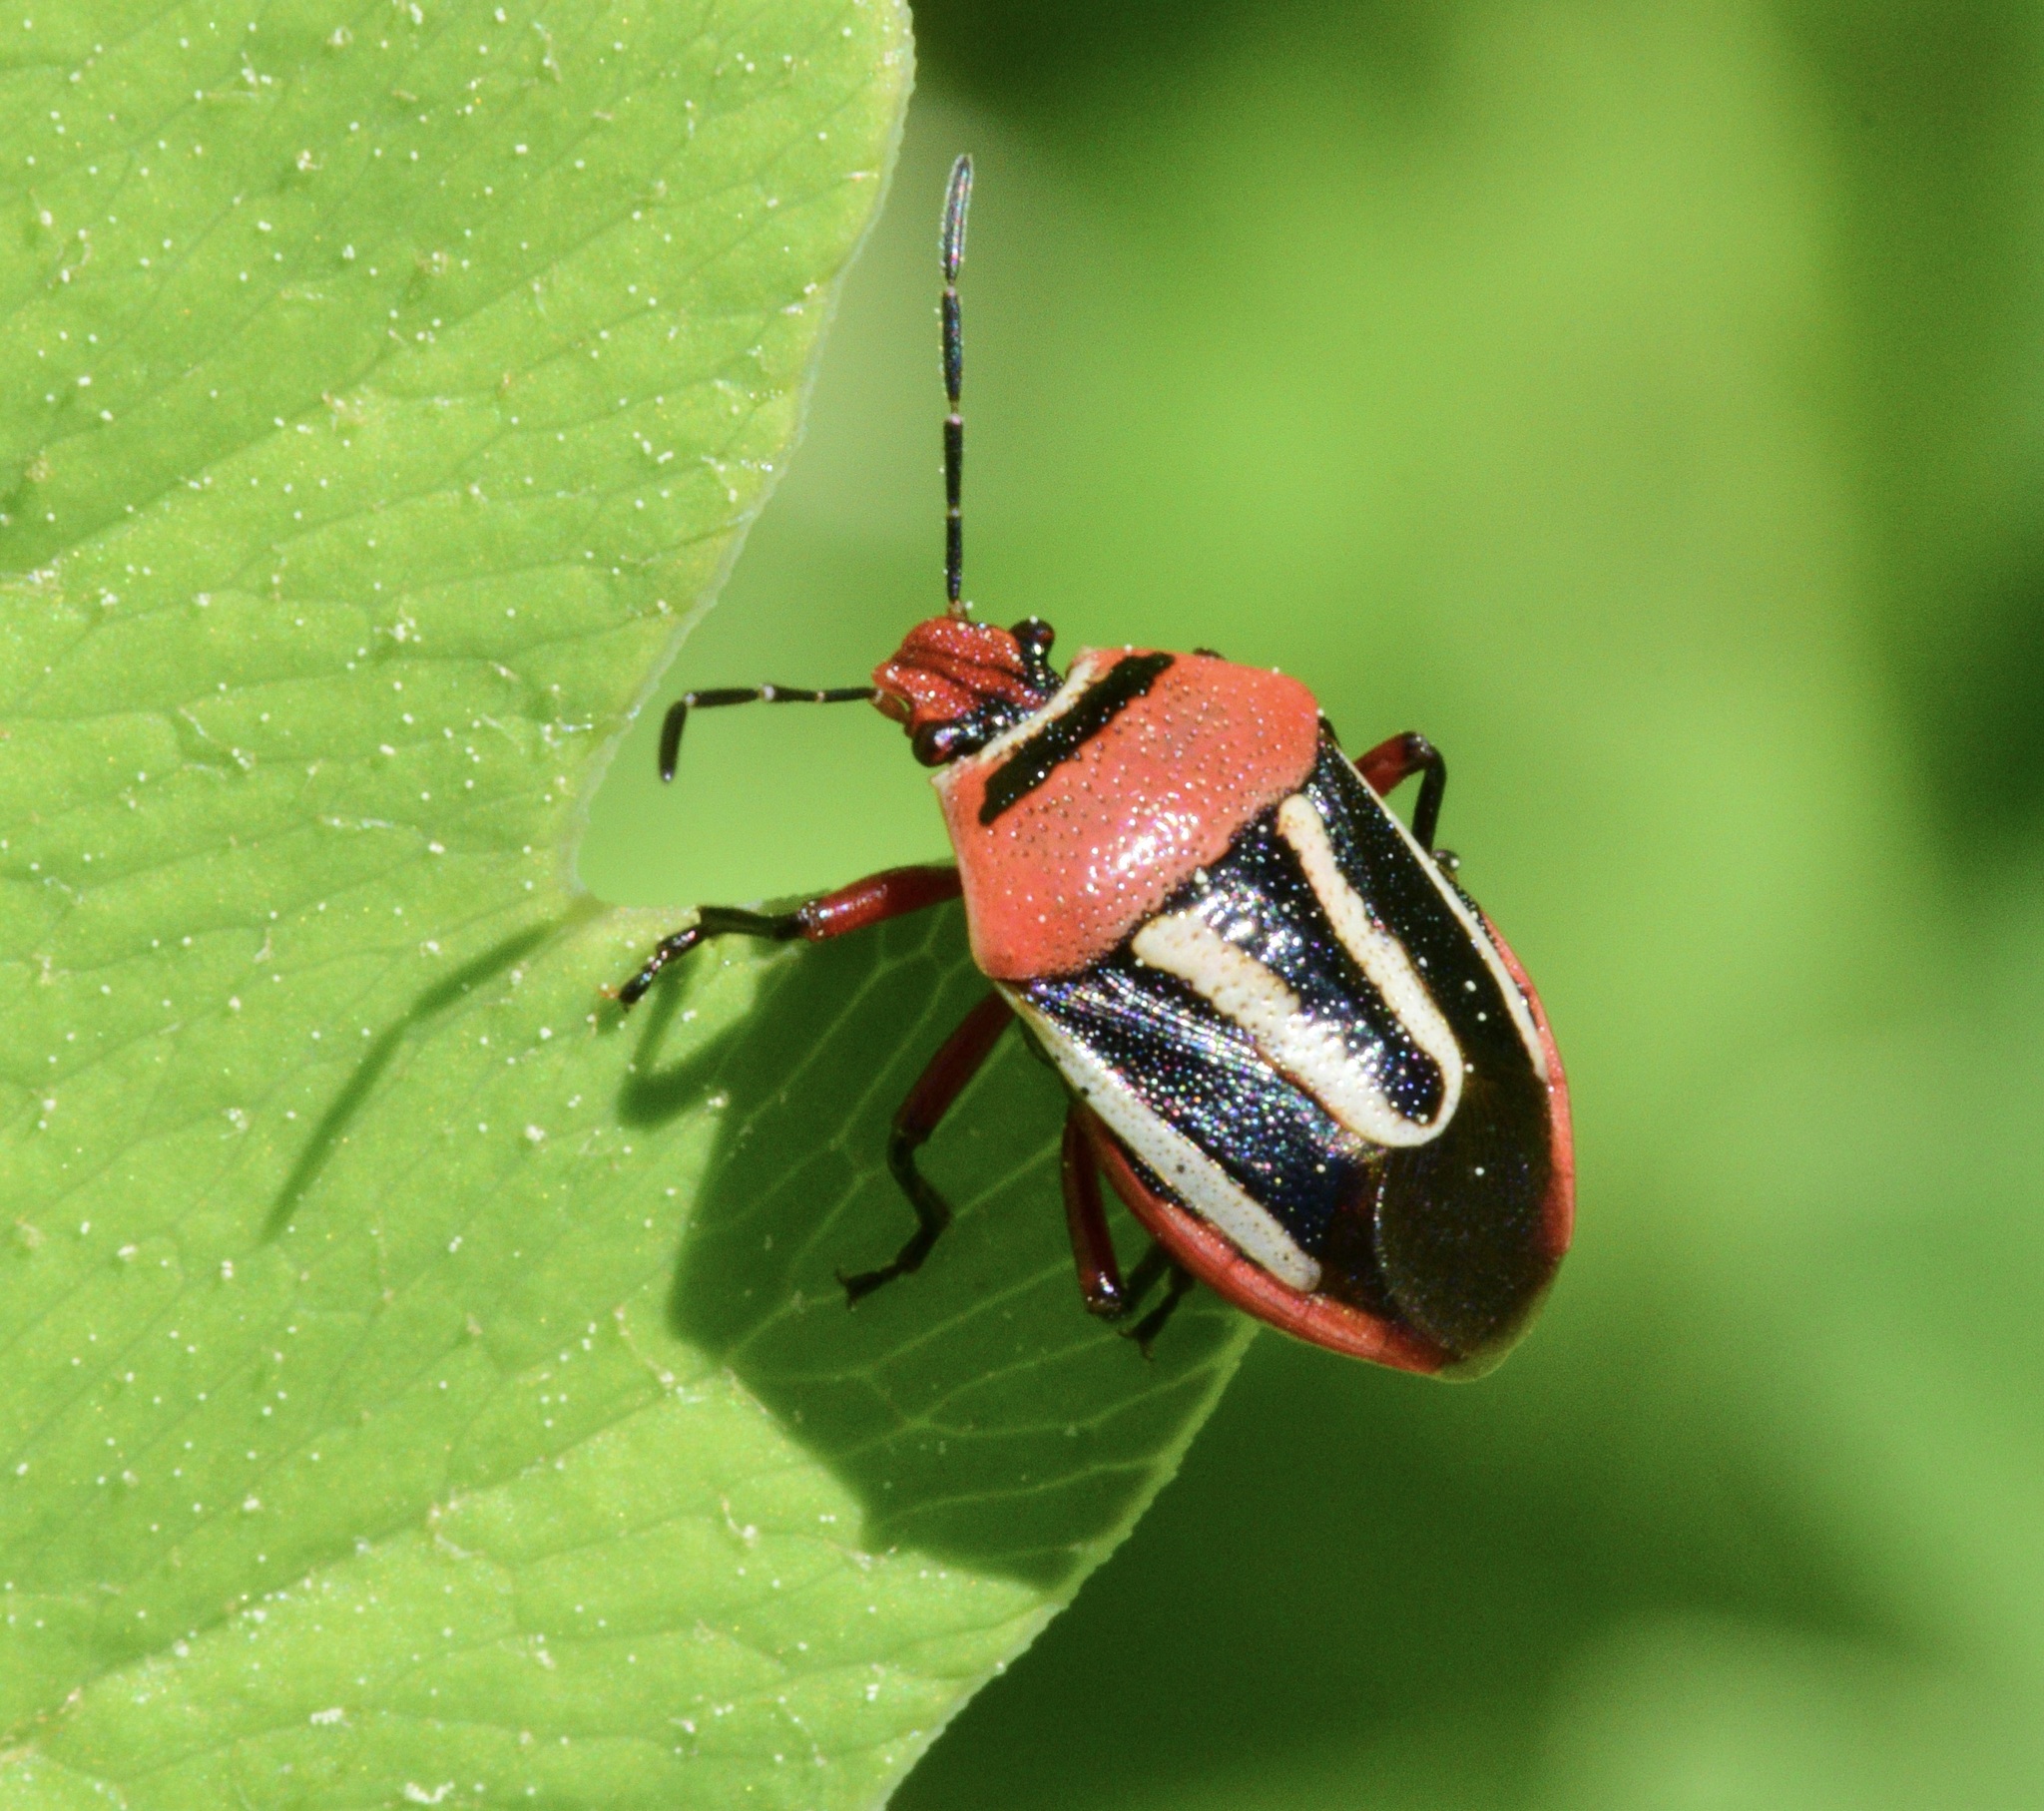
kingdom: Animalia
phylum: Arthropoda
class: Insecta
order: Hemiptera
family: Pentatomidae
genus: Perillus
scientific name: Perillus exaptus
